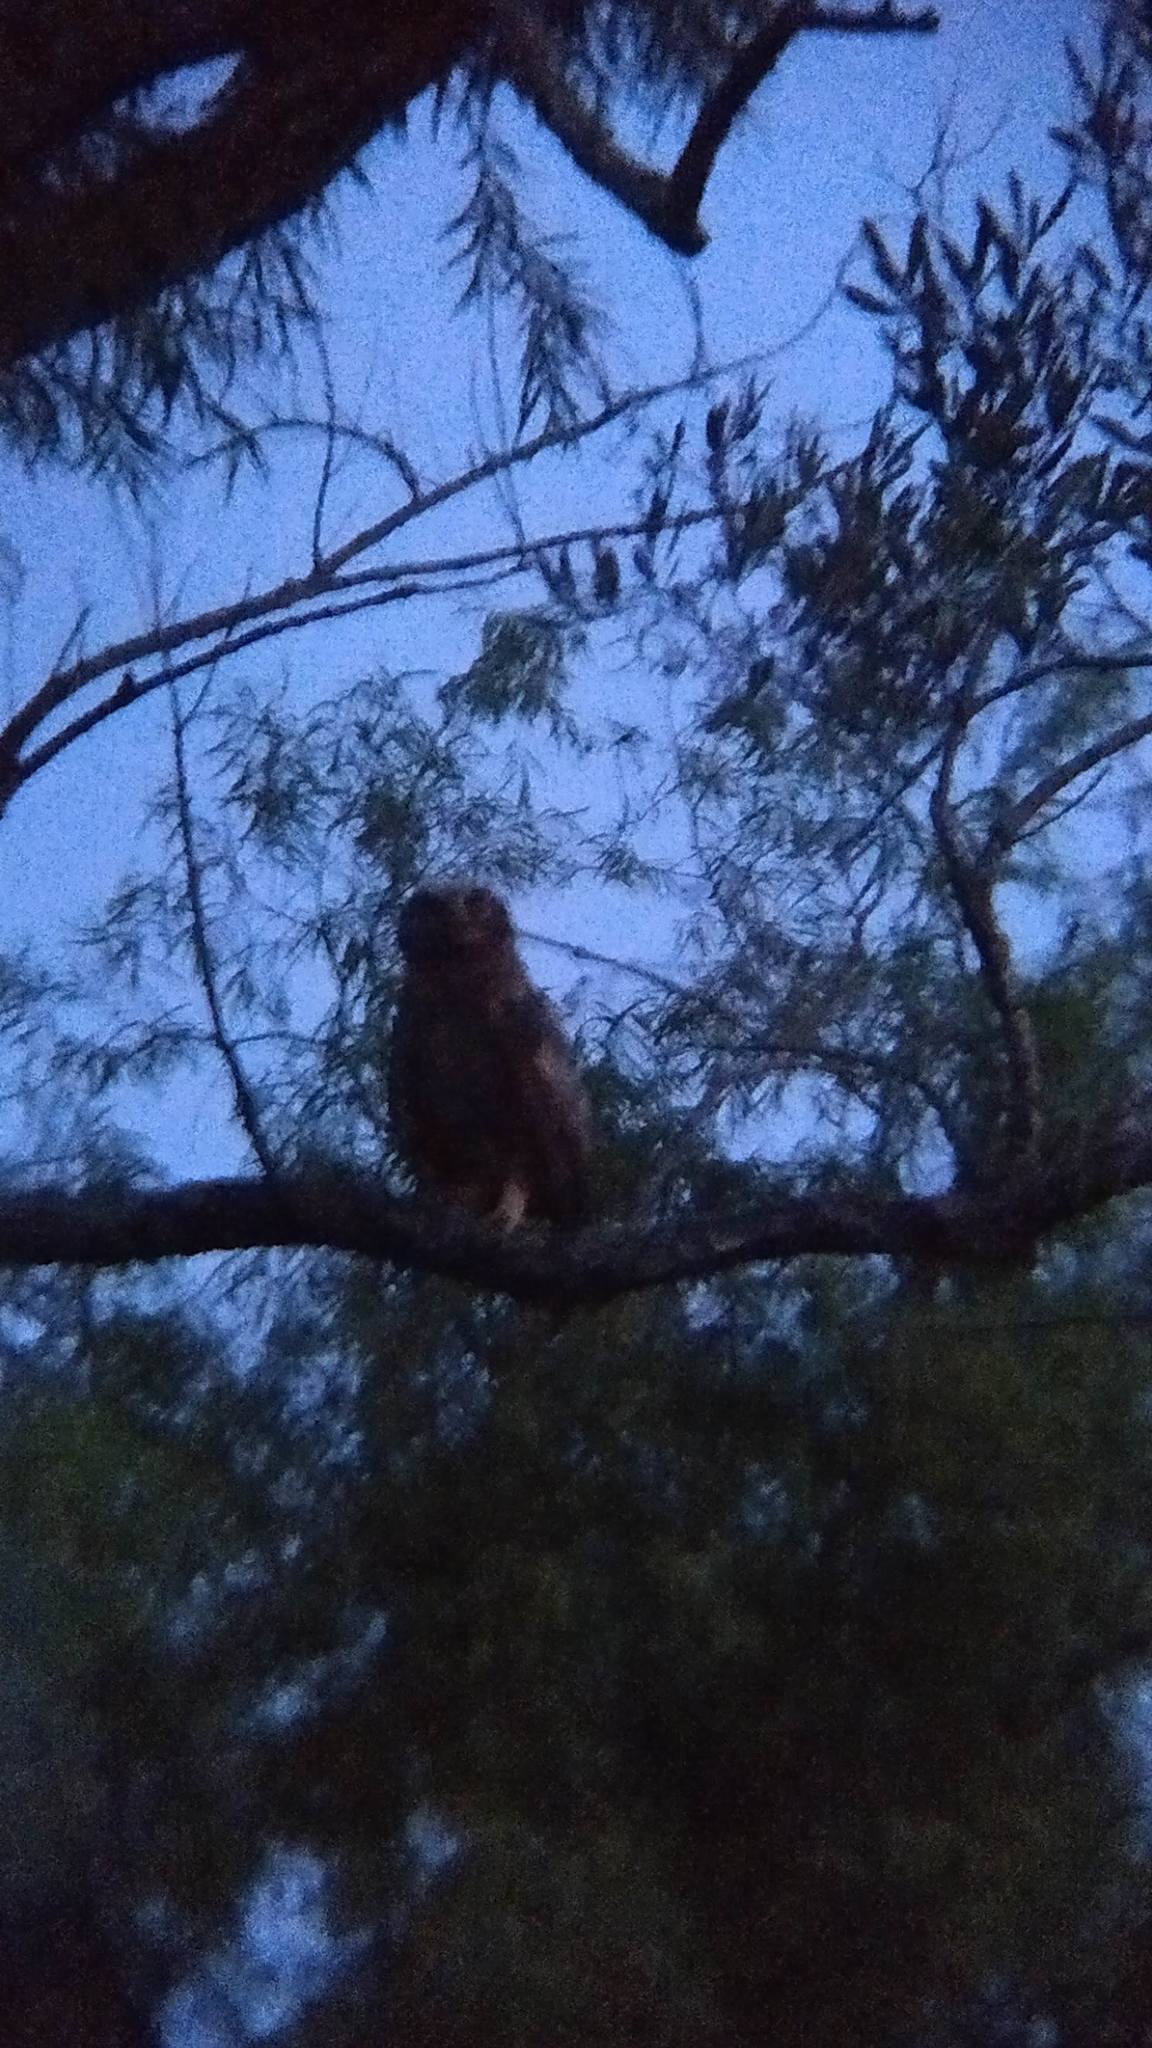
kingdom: Animalia
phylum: Chordata
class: Aves
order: Strigiformes
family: Strigidae
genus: Bubo
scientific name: Bubo virginianus
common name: Great horned owl
